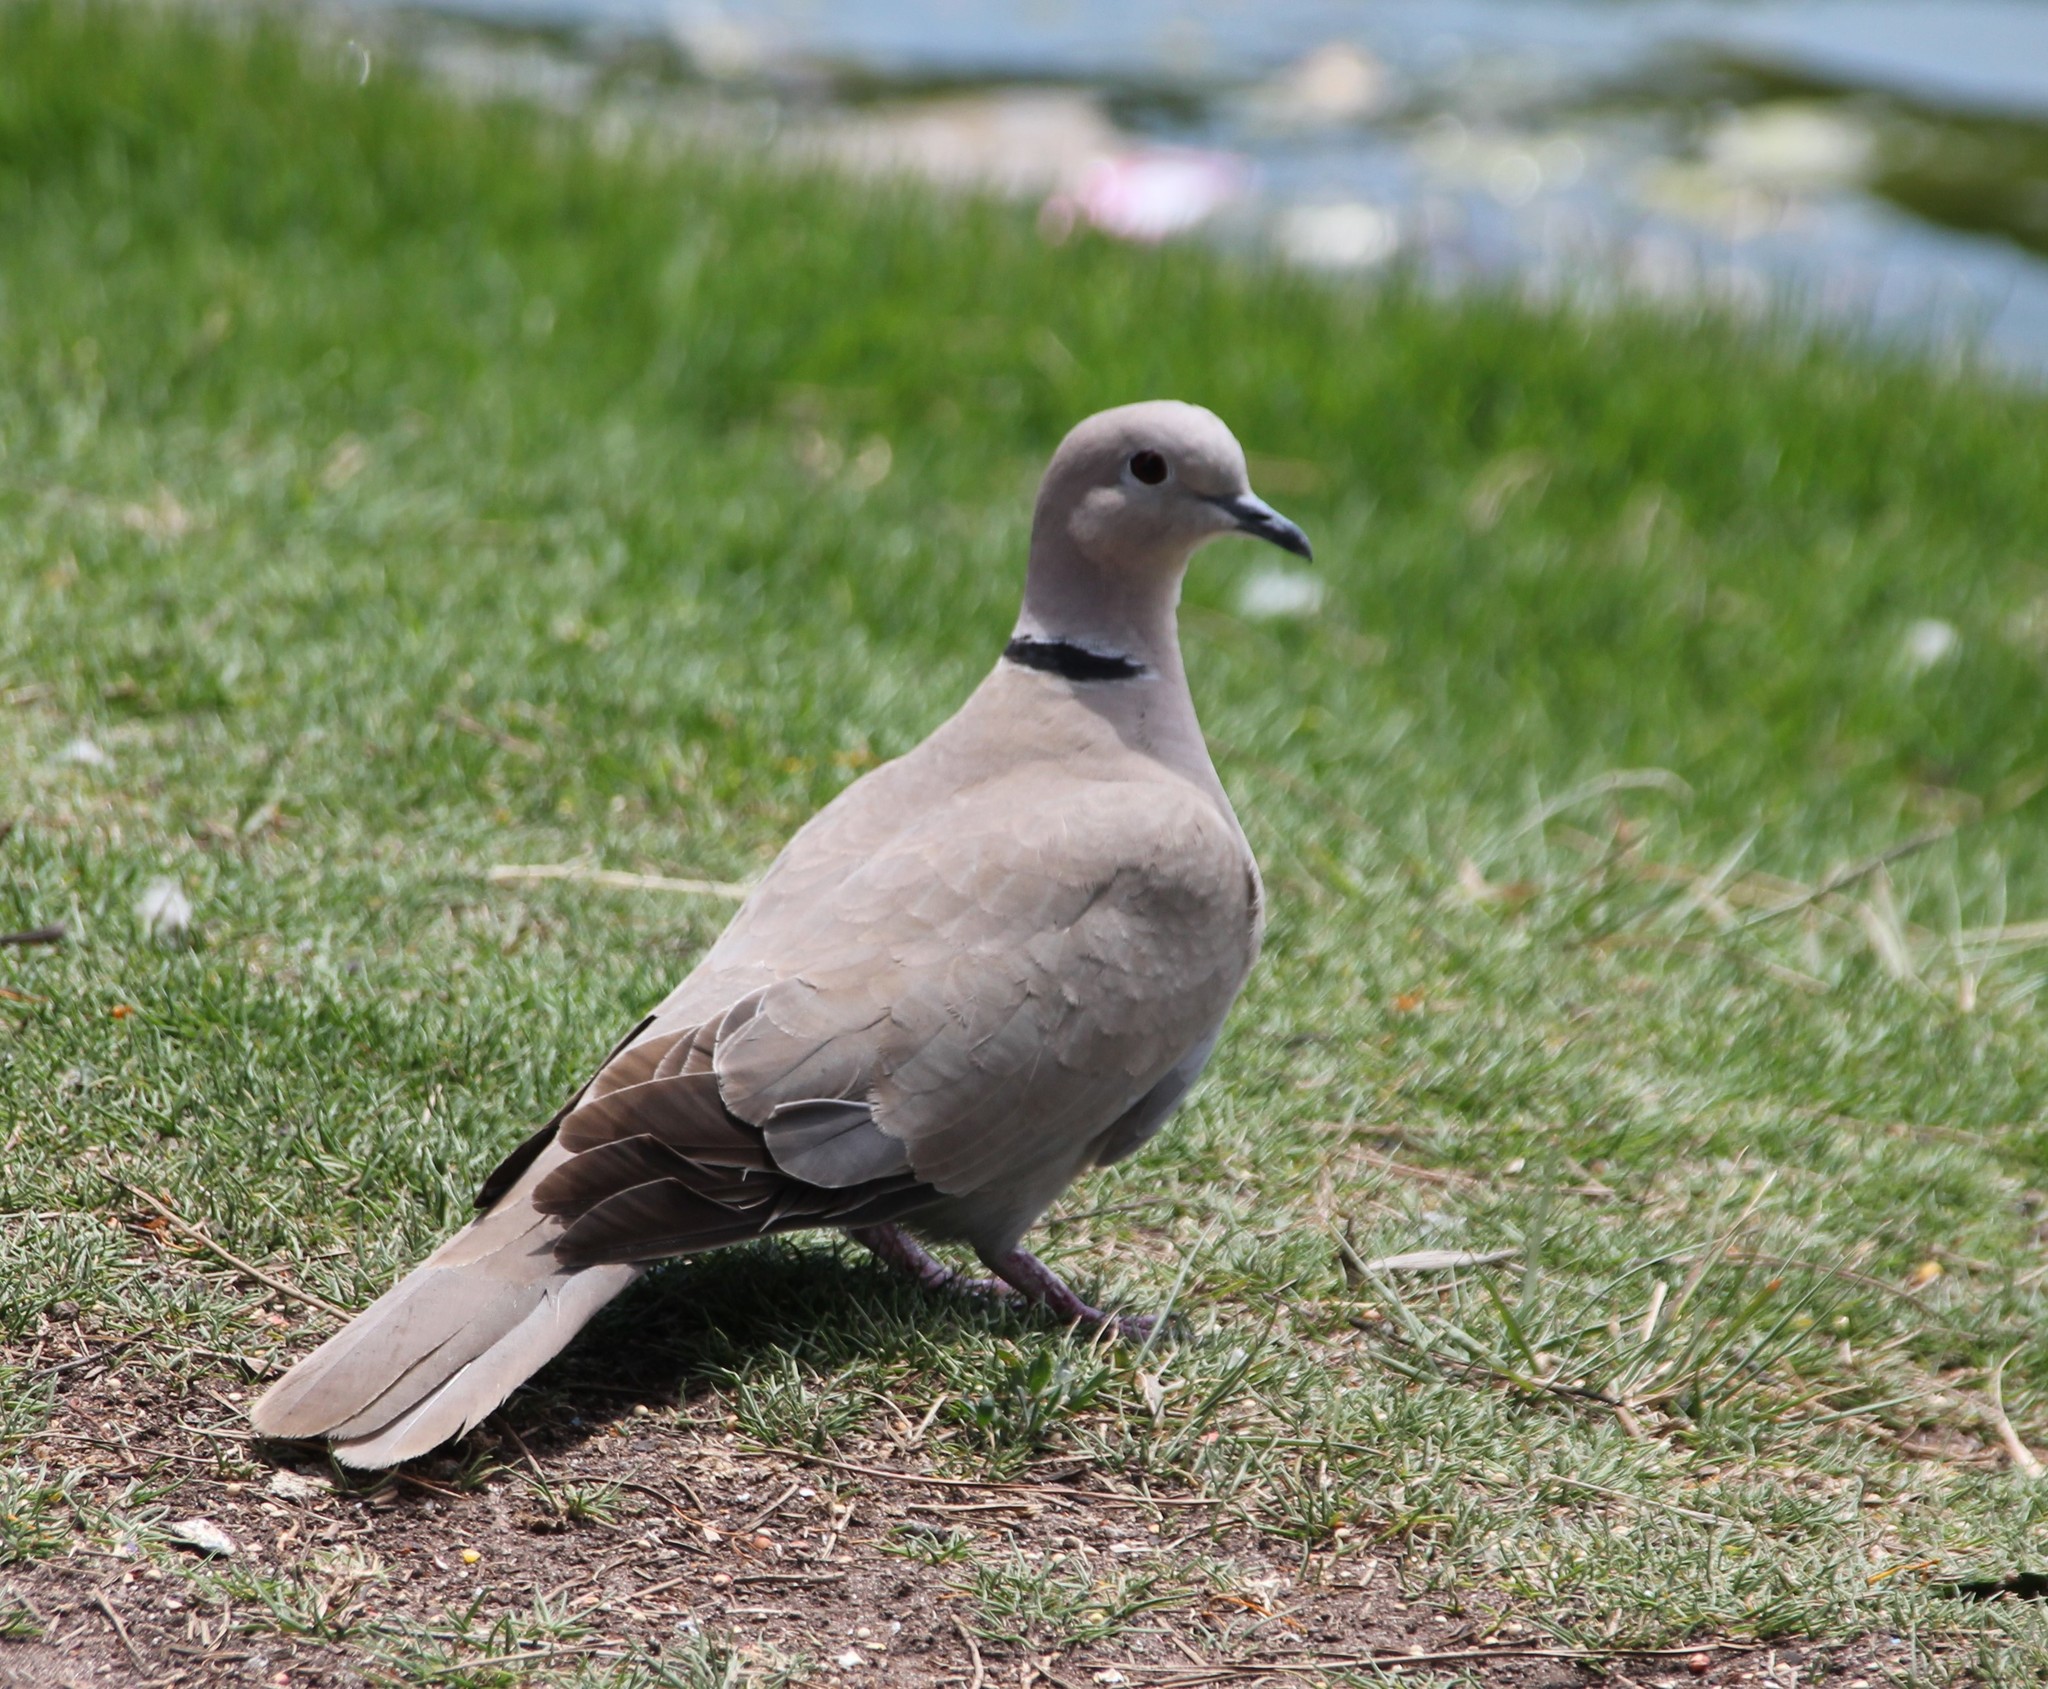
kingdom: Animalia
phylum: Chordata
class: Aves
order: Columbiformes
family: Columbidae
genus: Streptopelia
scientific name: Streptopelia decaocto
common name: Eurasian collared dove
